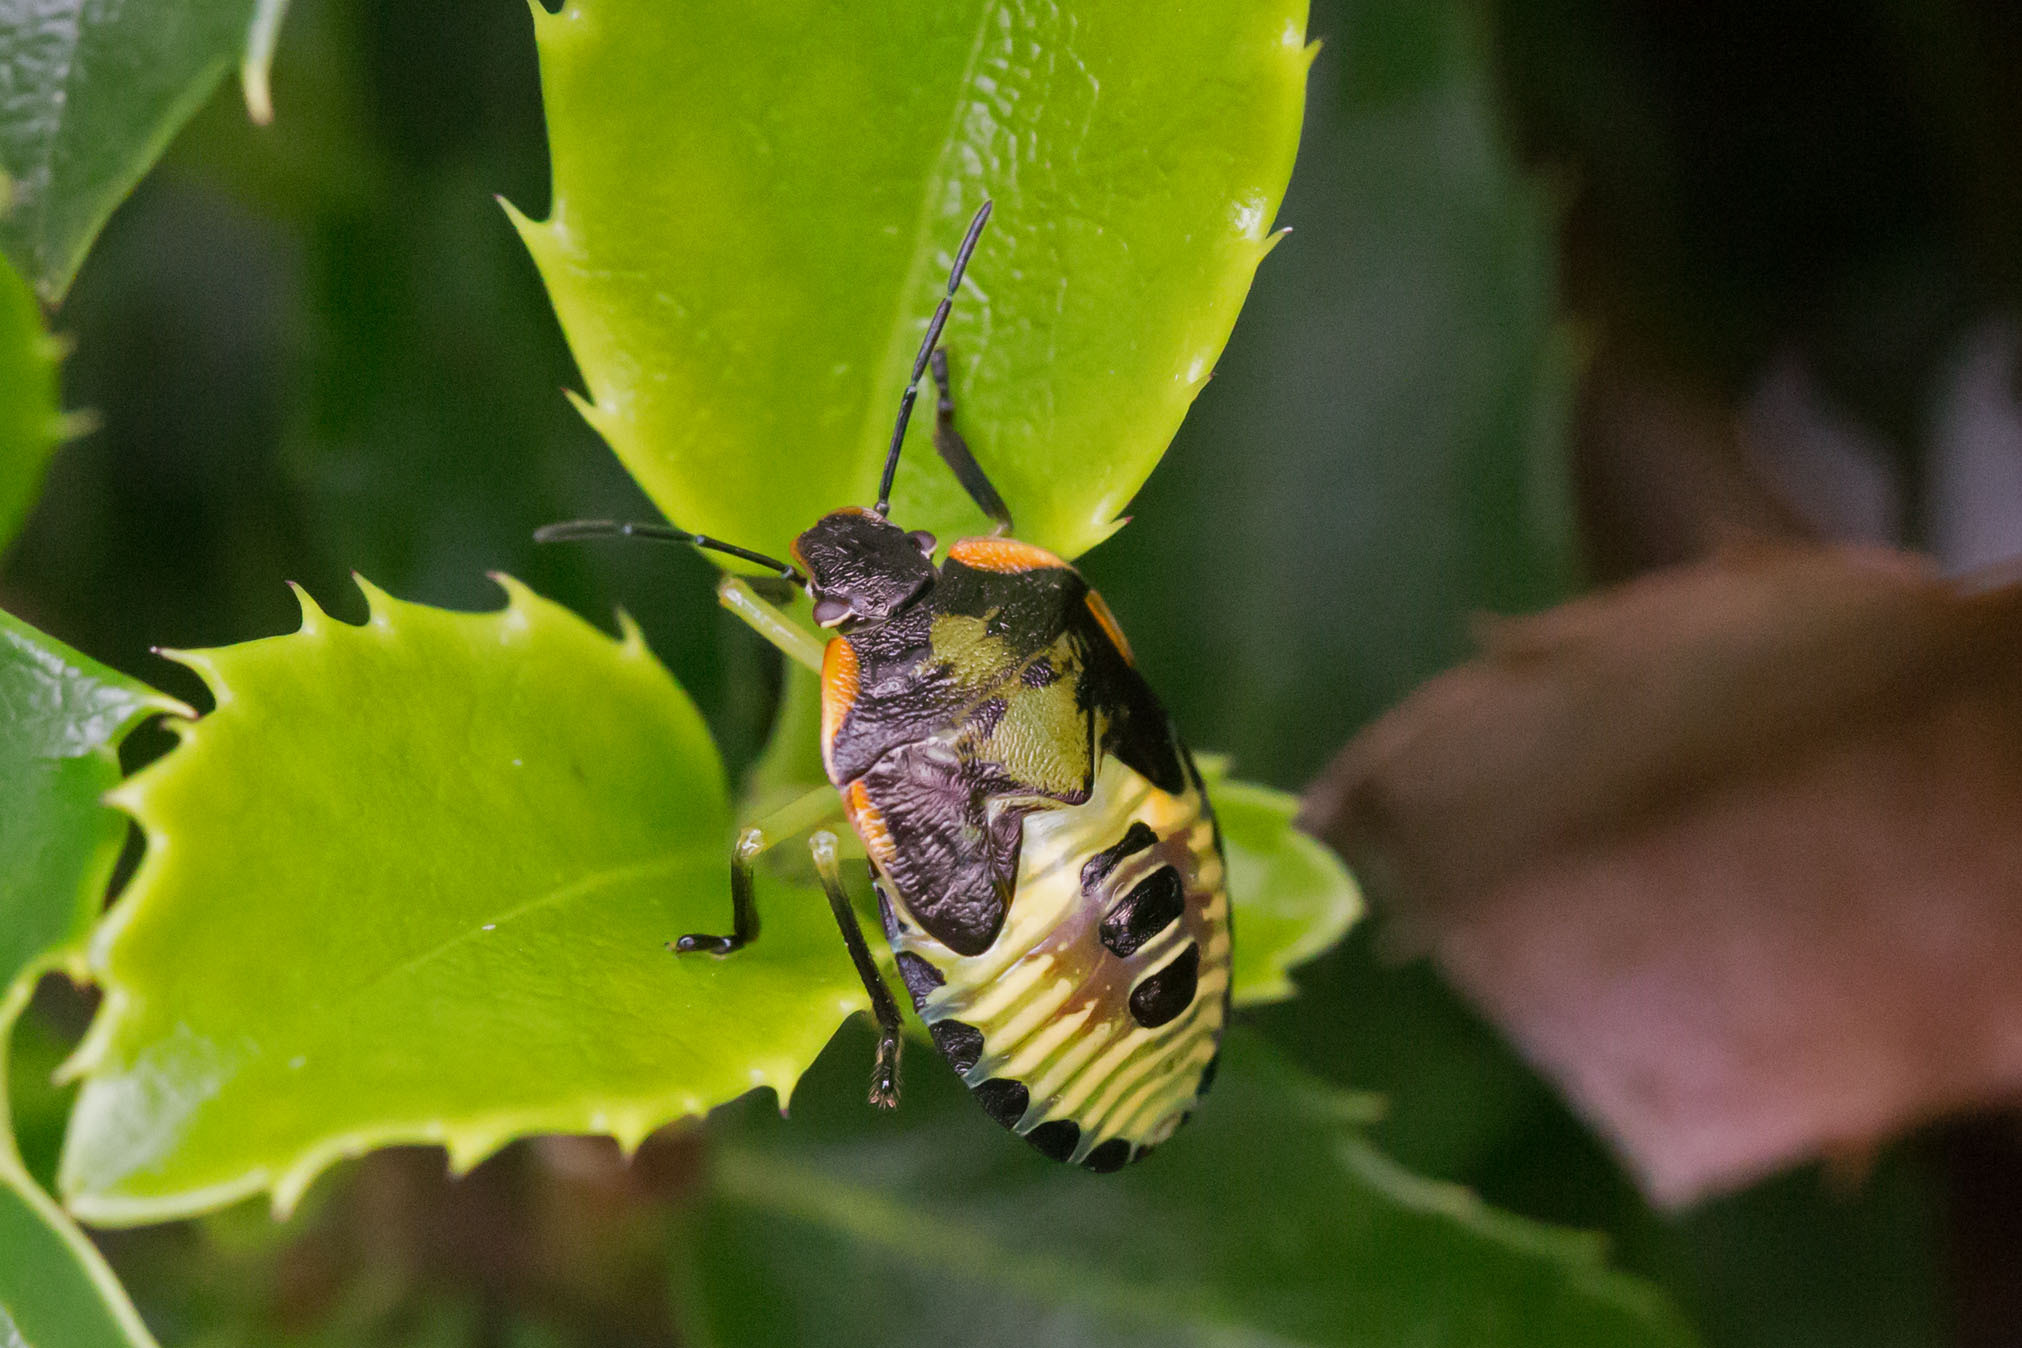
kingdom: Animalia
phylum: Arthropoda
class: Insecta
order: Hemiptera
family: Pentatomidae
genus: Chinavia
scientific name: Chinavia hilaris
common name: Green stink bug
